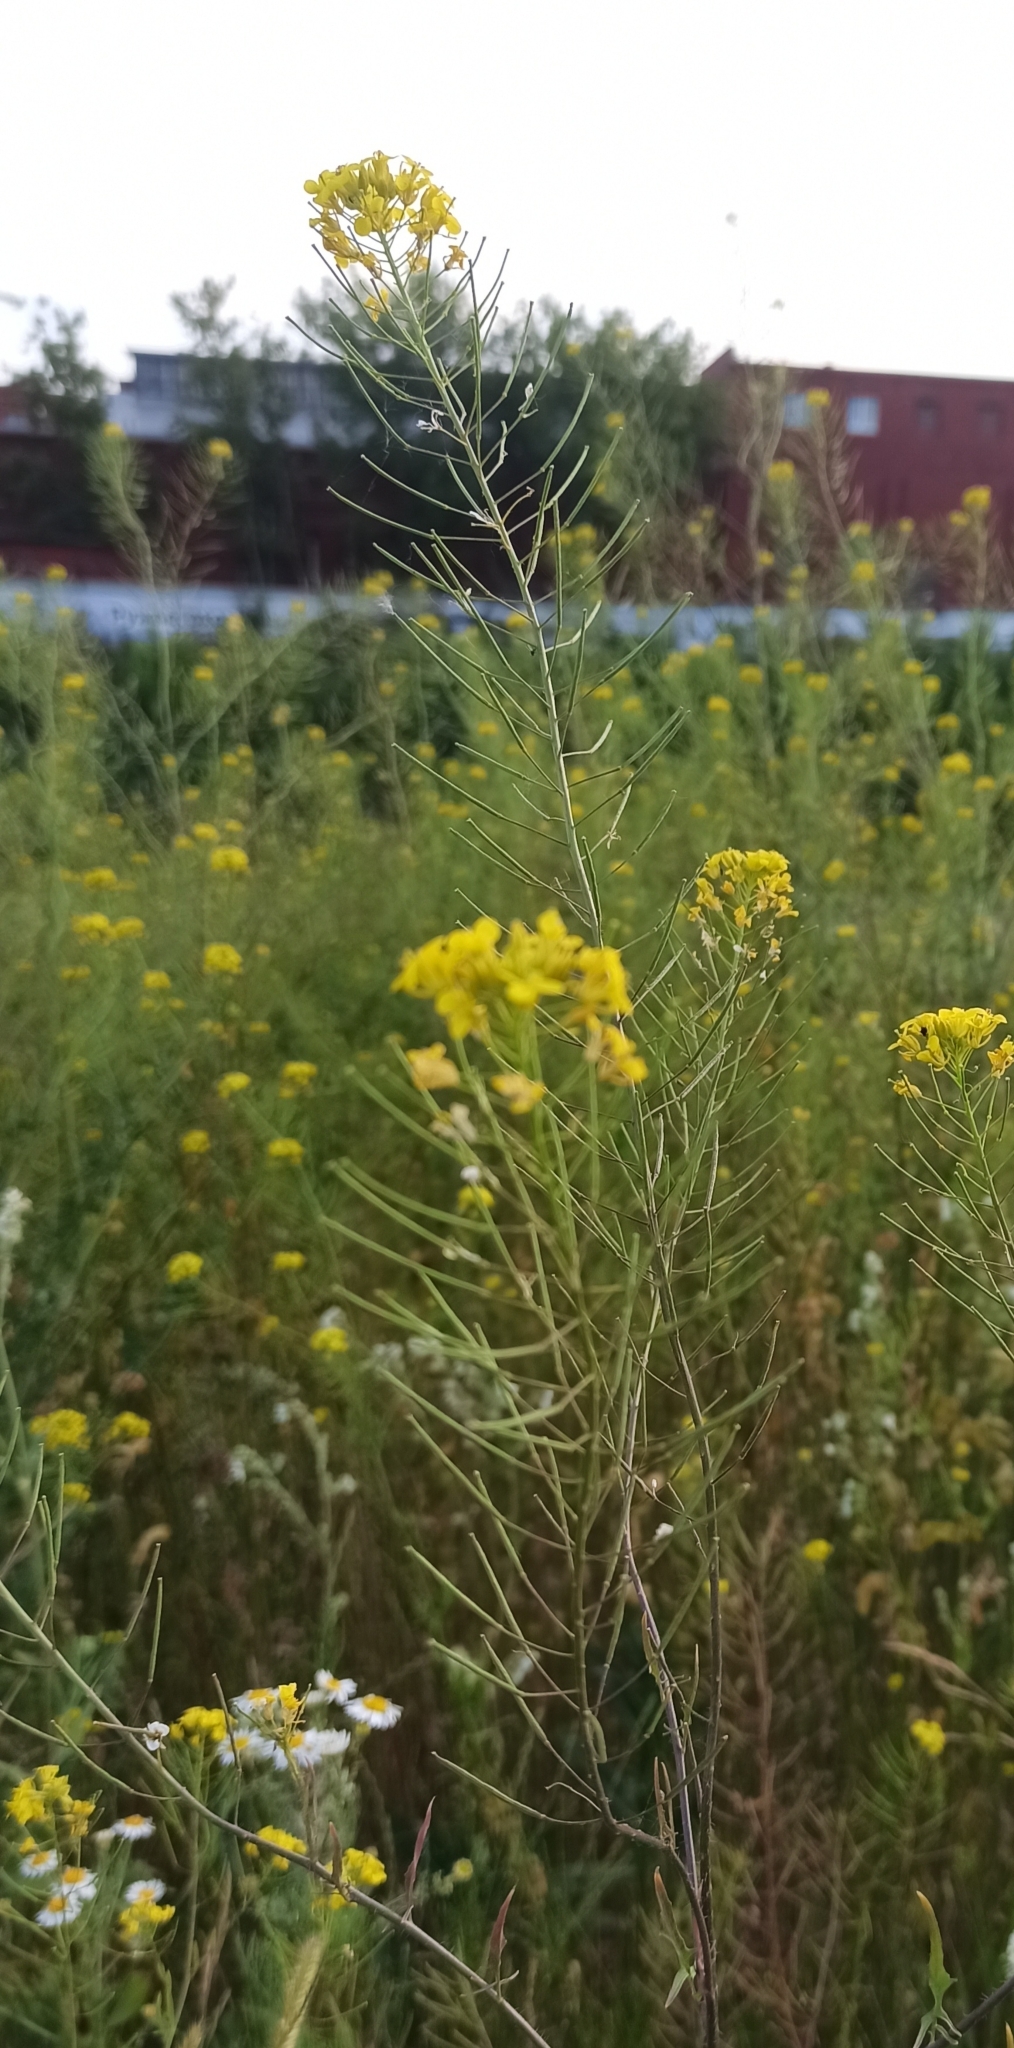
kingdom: Plantae
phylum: Tracheophyta
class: Magnoliopsida
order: Brassicales
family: Brassicaceae
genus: Sisymbrium
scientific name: Sisymbrium loeselii
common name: False london-rocket
